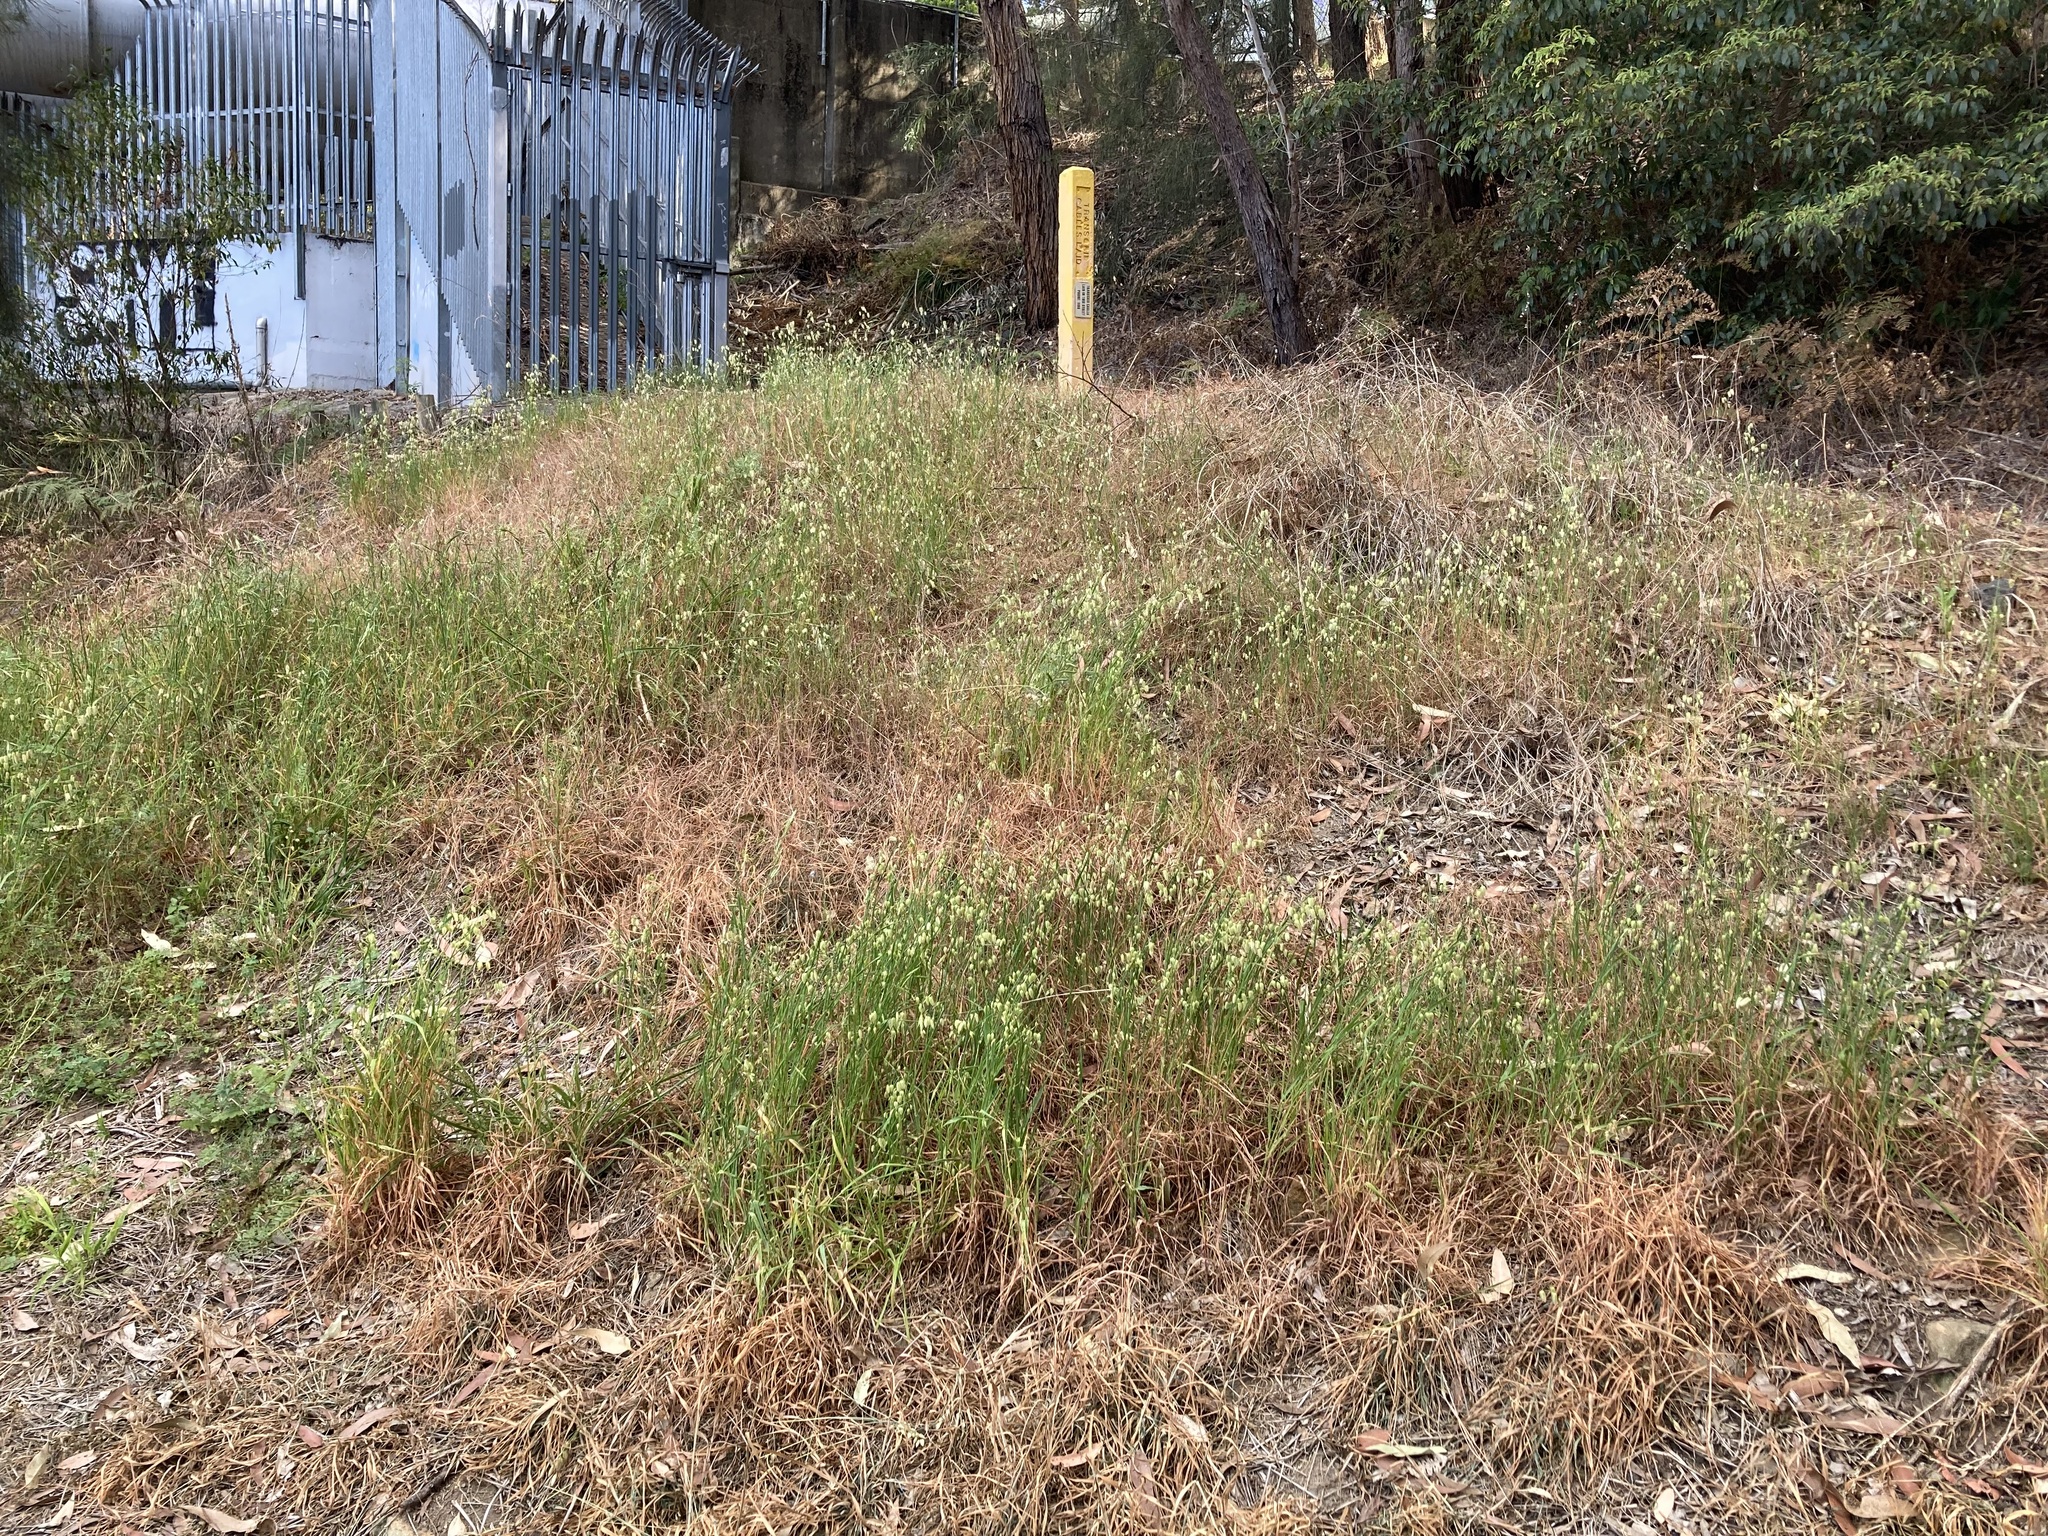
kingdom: Plantae
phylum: Tracheophyta
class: Liliopsida
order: Poales
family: Poaceae
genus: Briza
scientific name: Briza maxima
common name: Big quakinggrass
